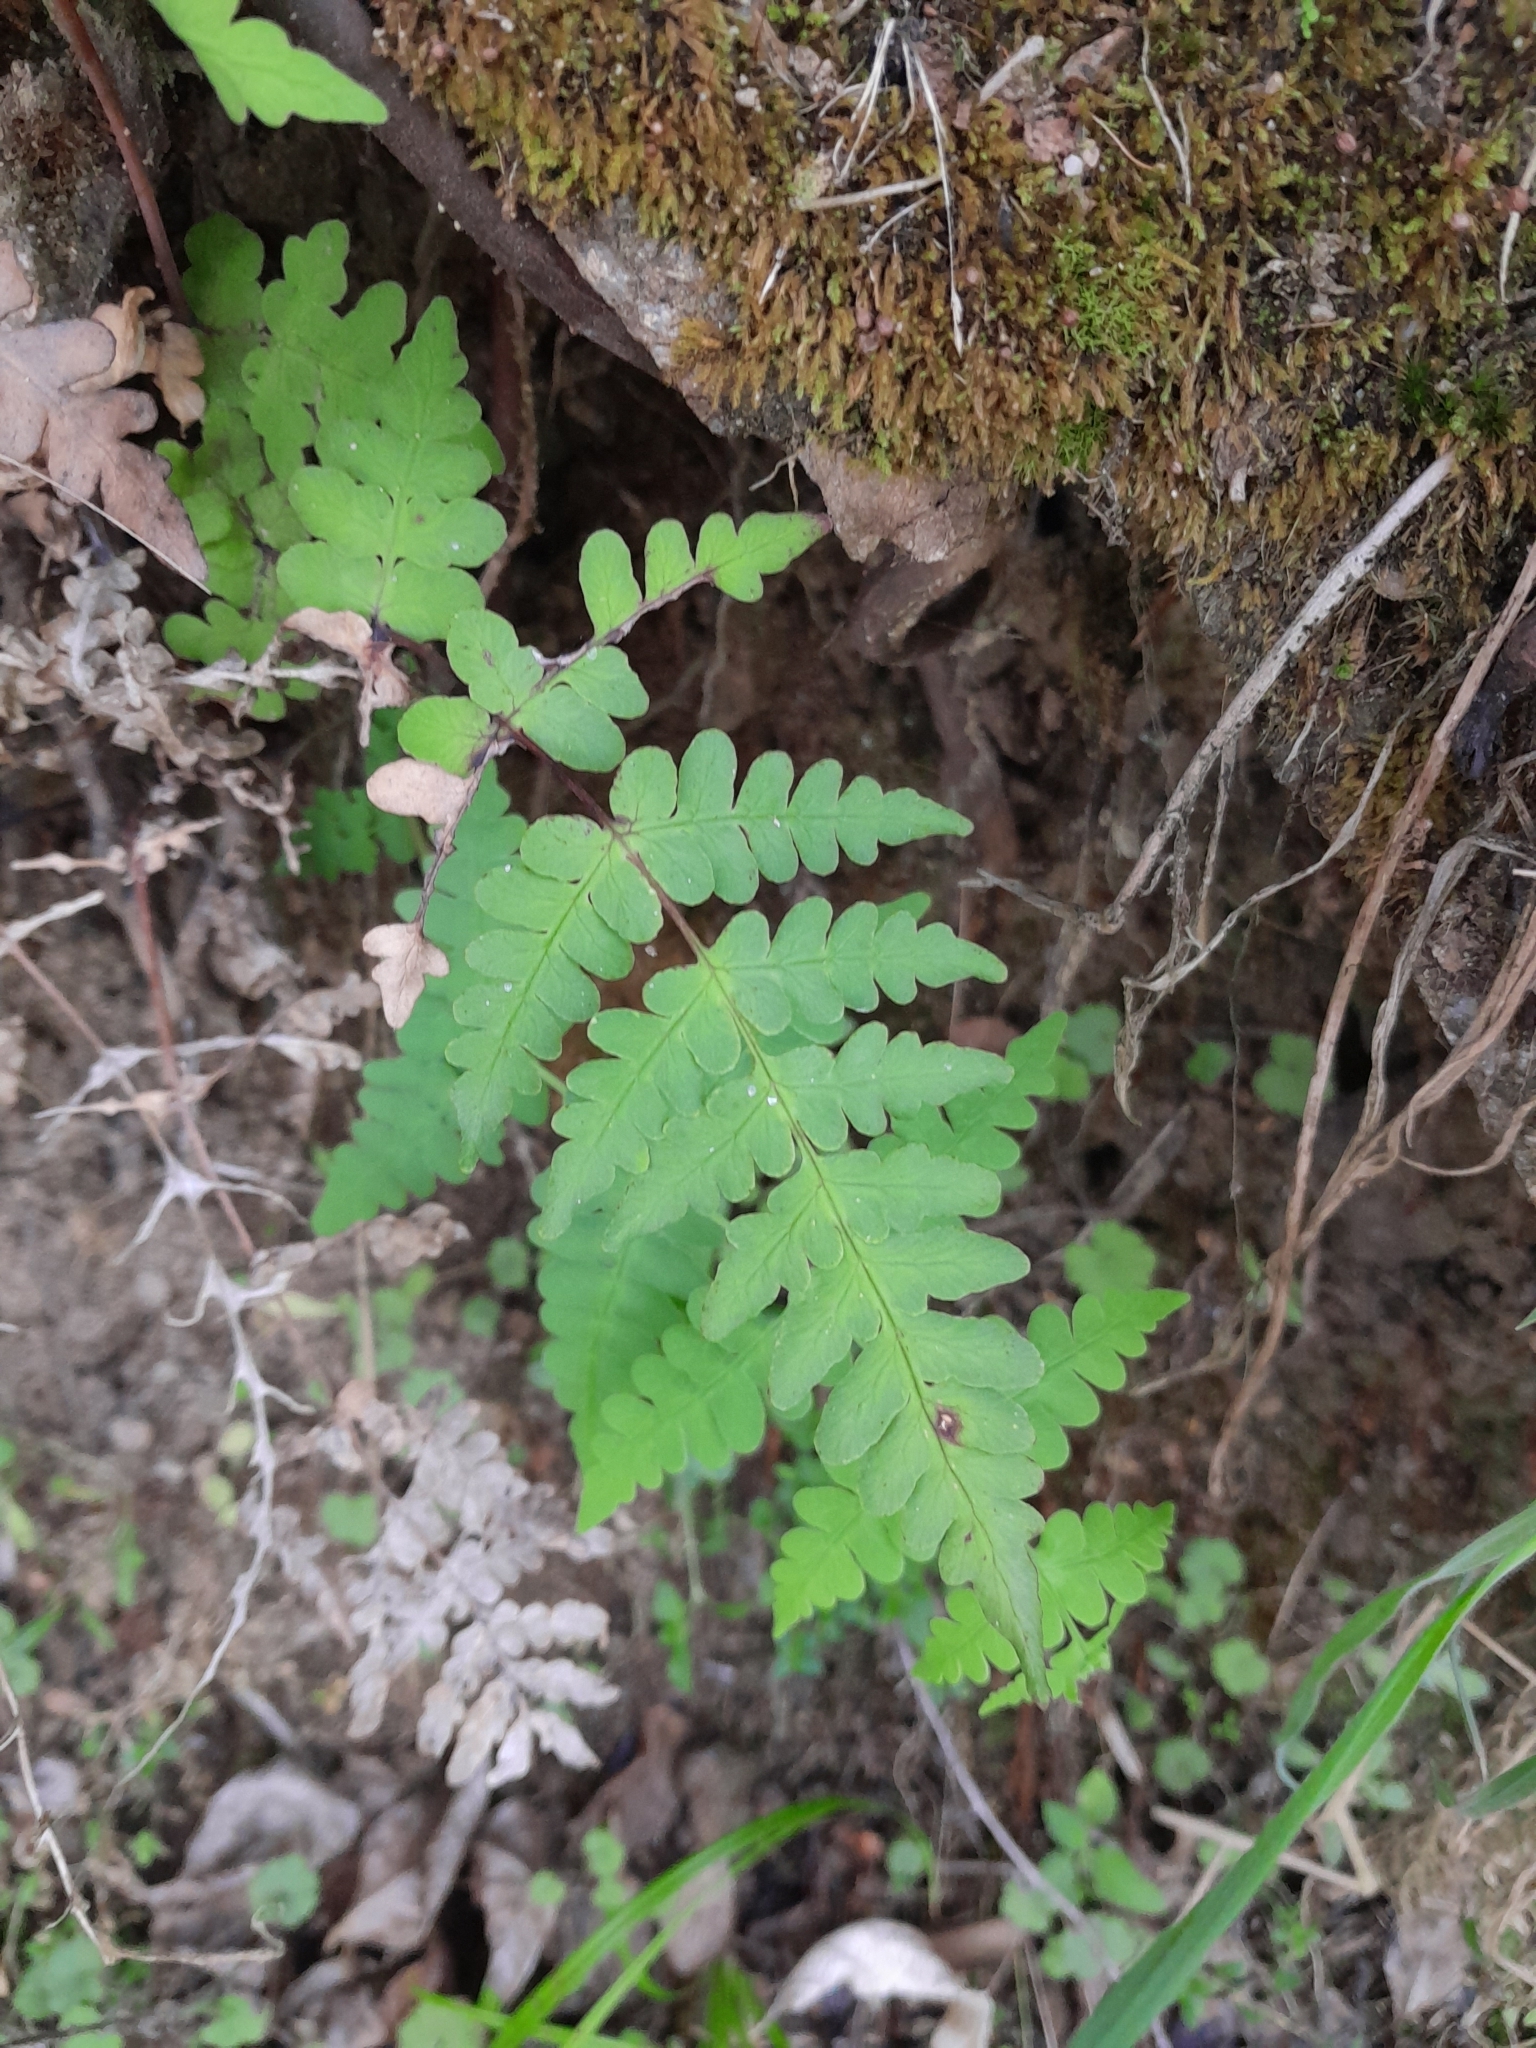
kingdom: Plantae
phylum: Tracheophyta
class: Polypodiopsida
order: Polypodiales
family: Dennstaedtiaceae
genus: Histiopteris
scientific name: Histiopteris incisa
